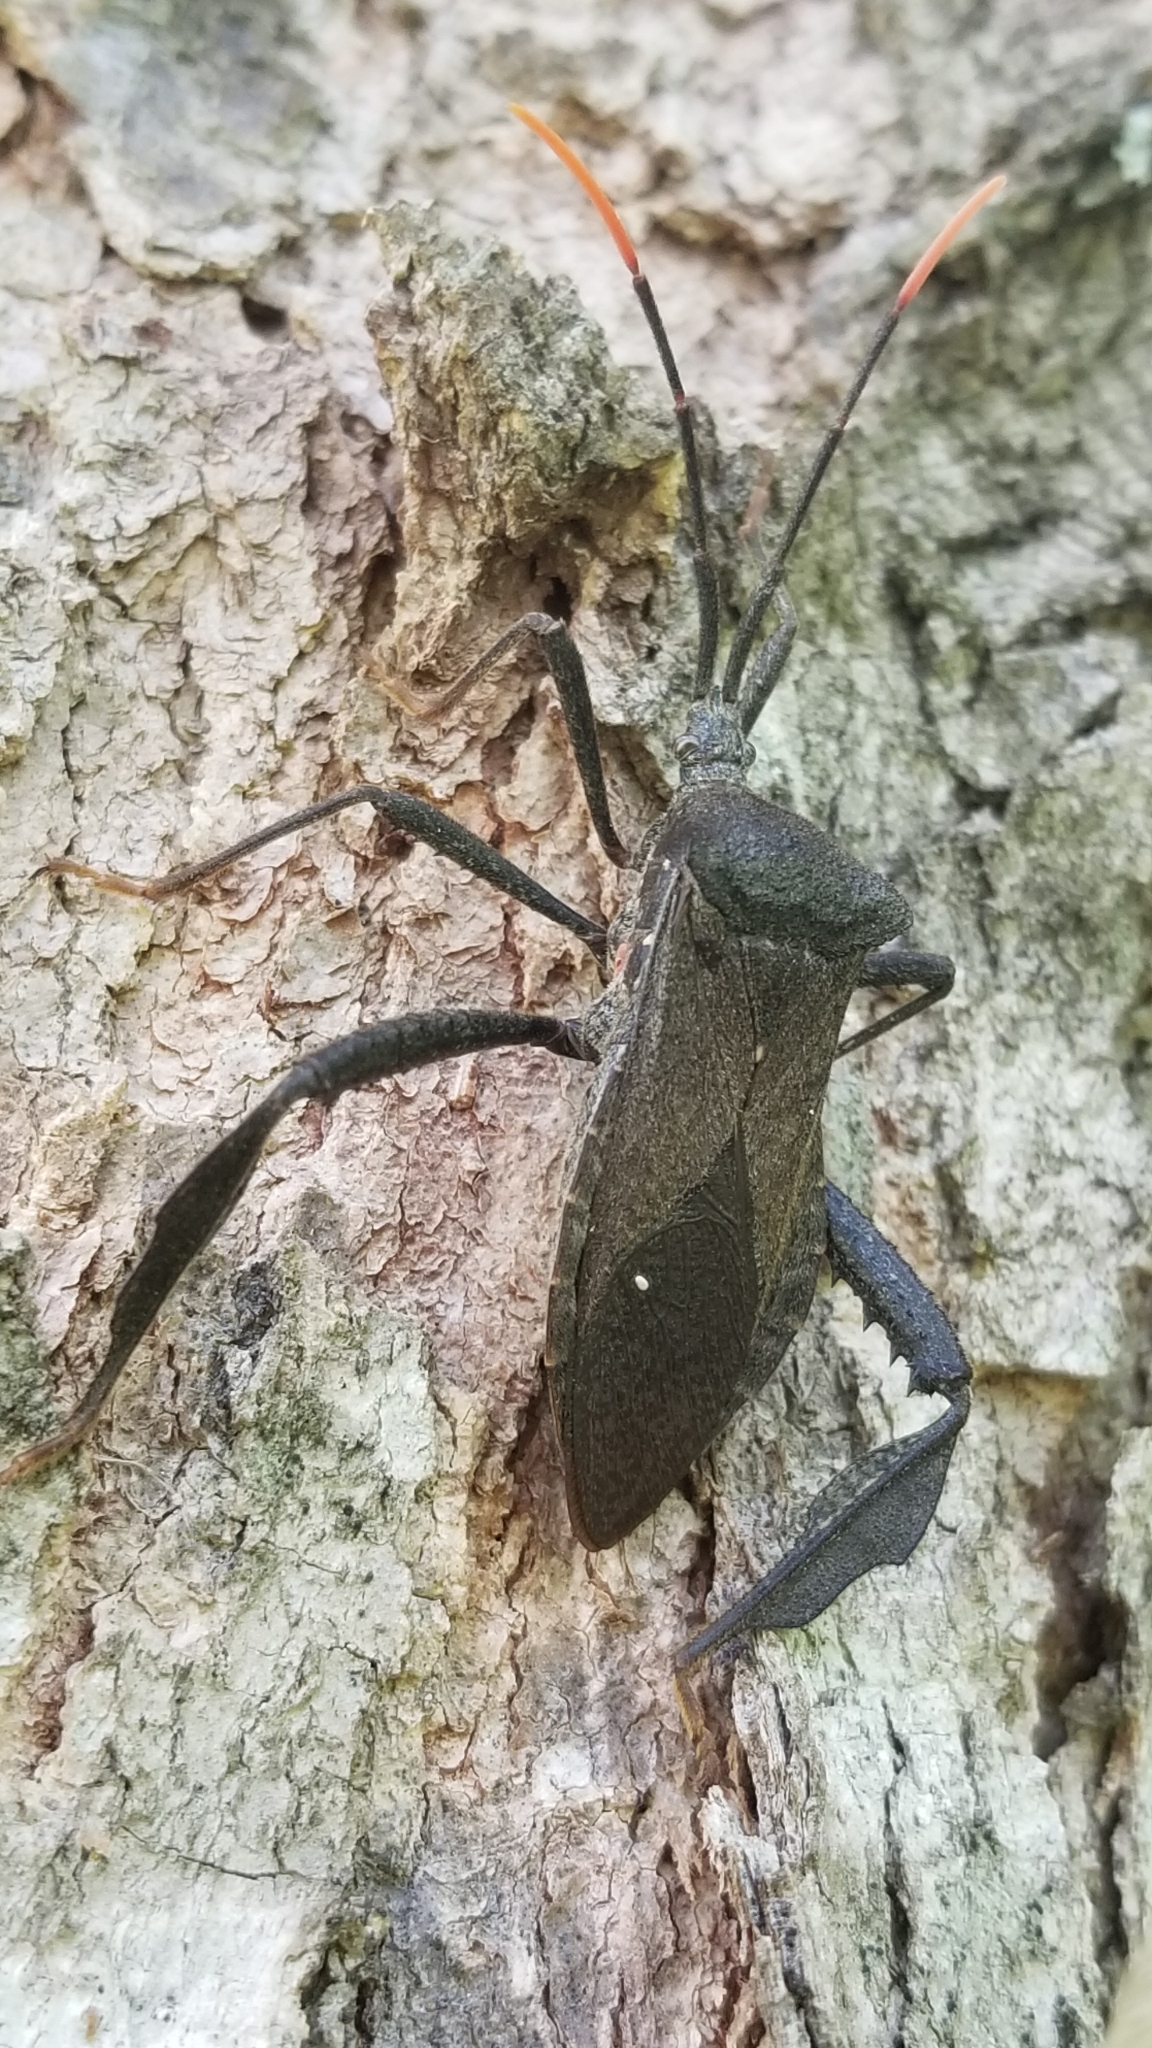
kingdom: Animalia
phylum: Arthropoda
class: Insecta
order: Hemiptera
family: Coreidae
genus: Acanthocephala
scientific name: Acanthocephala terminalis
